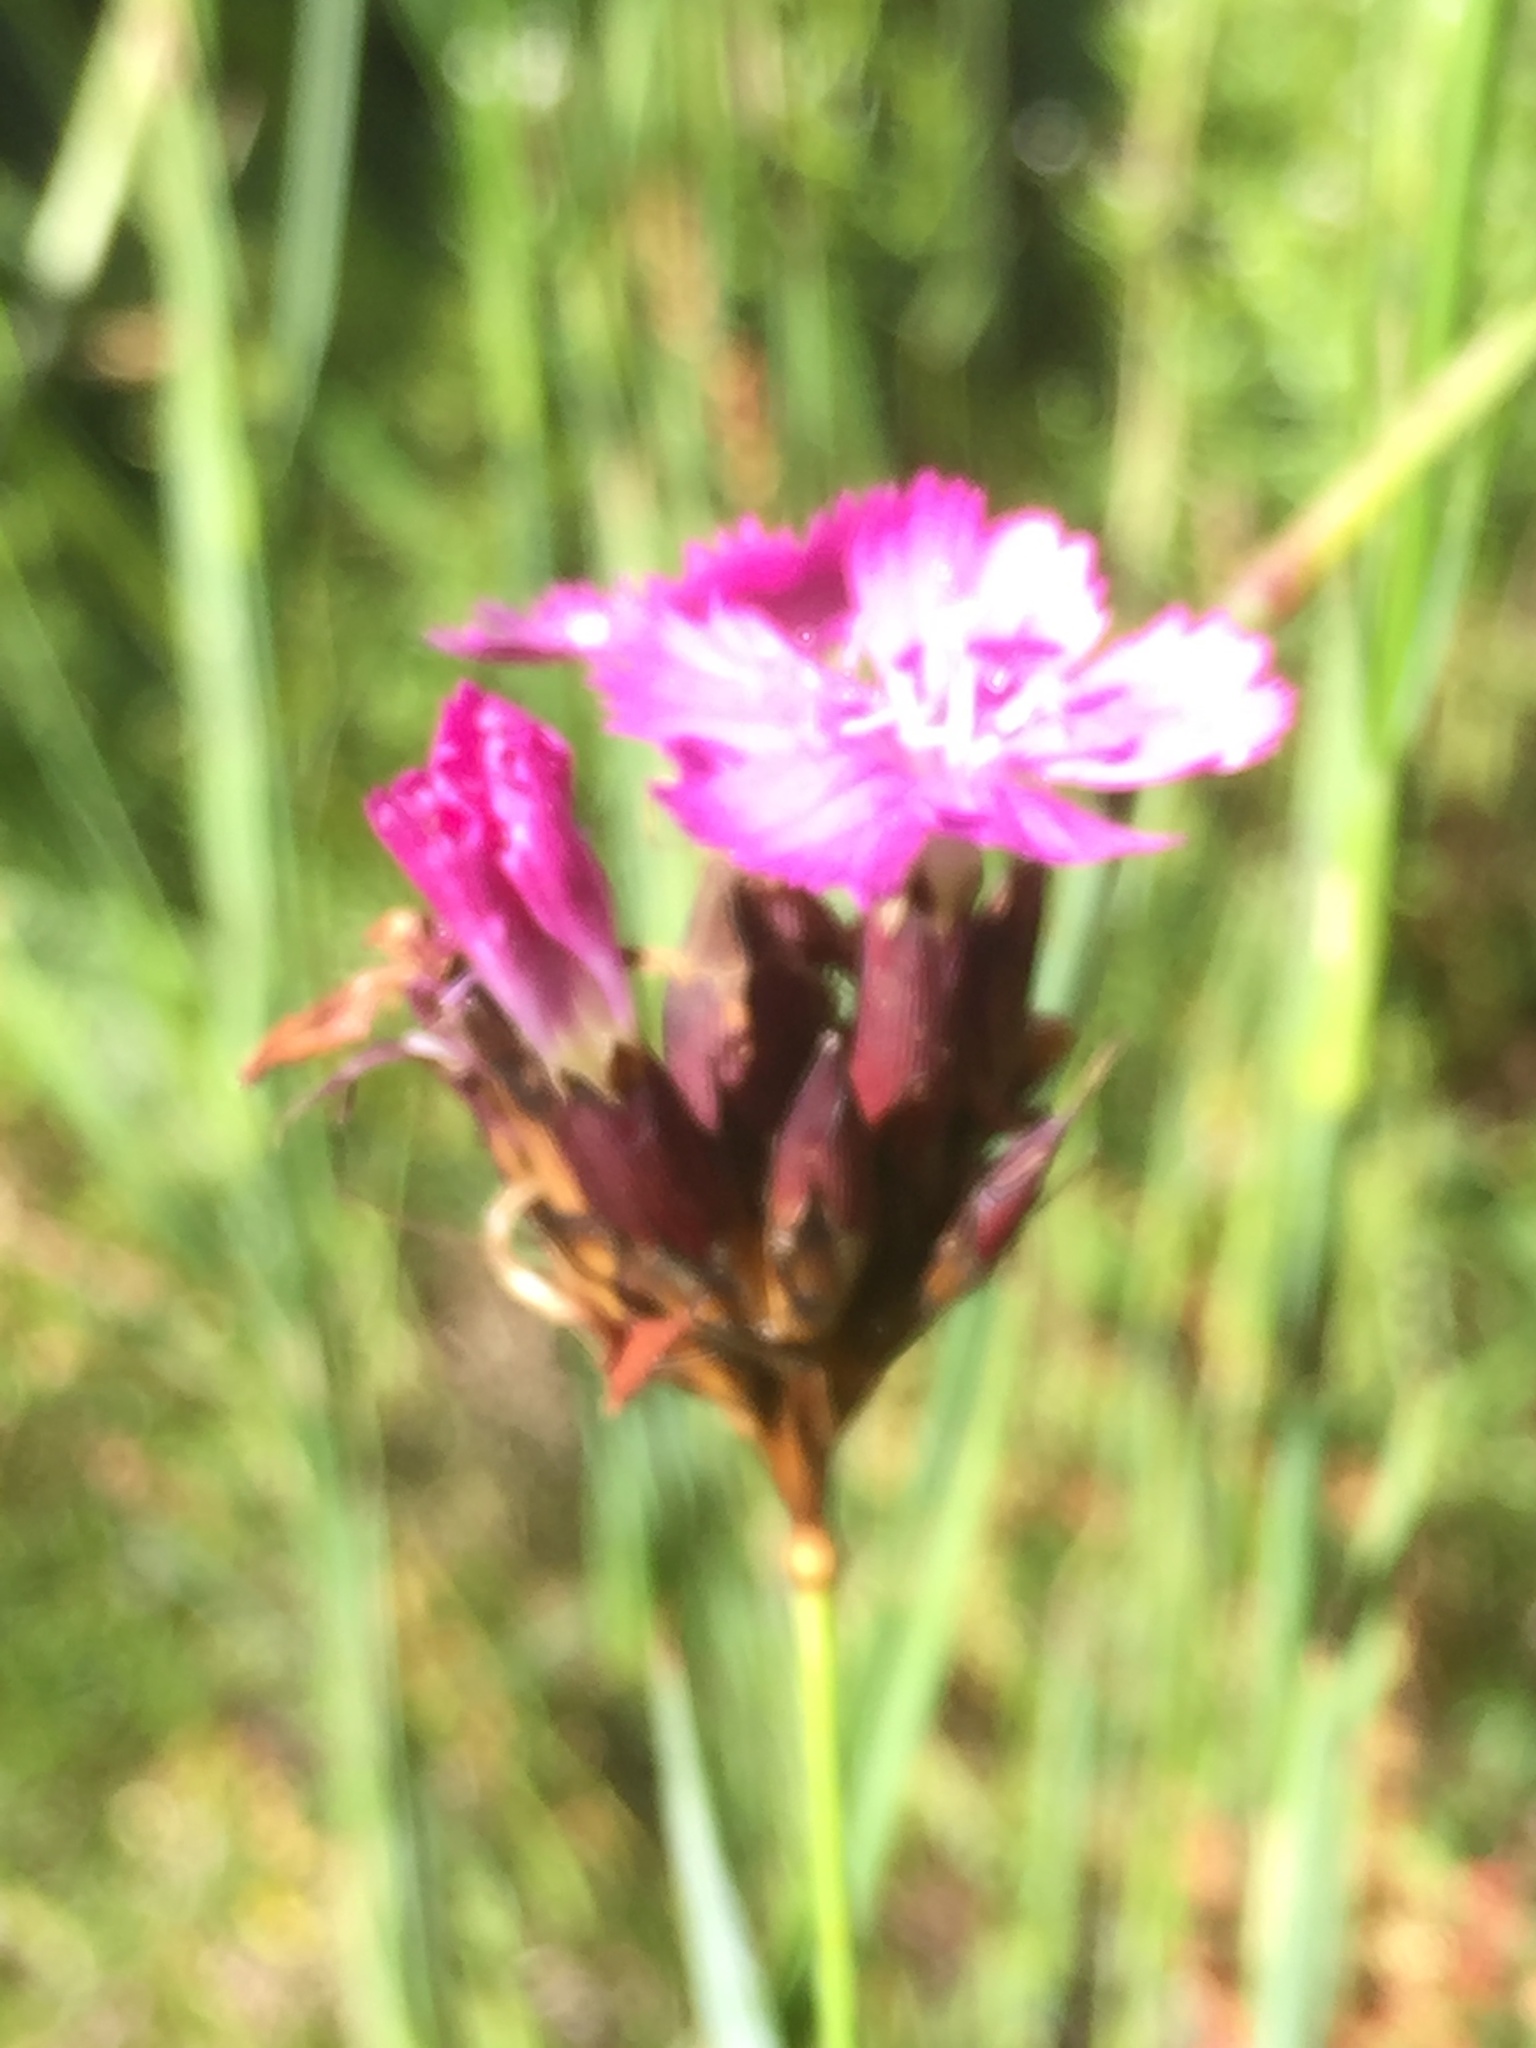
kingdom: Plantae
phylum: Tracheophyta
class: Magnoliopsida
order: Caryophyllales
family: Caryophyllaceae
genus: Dianthus
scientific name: Dianthus carthusianorum
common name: Carthusian pink
